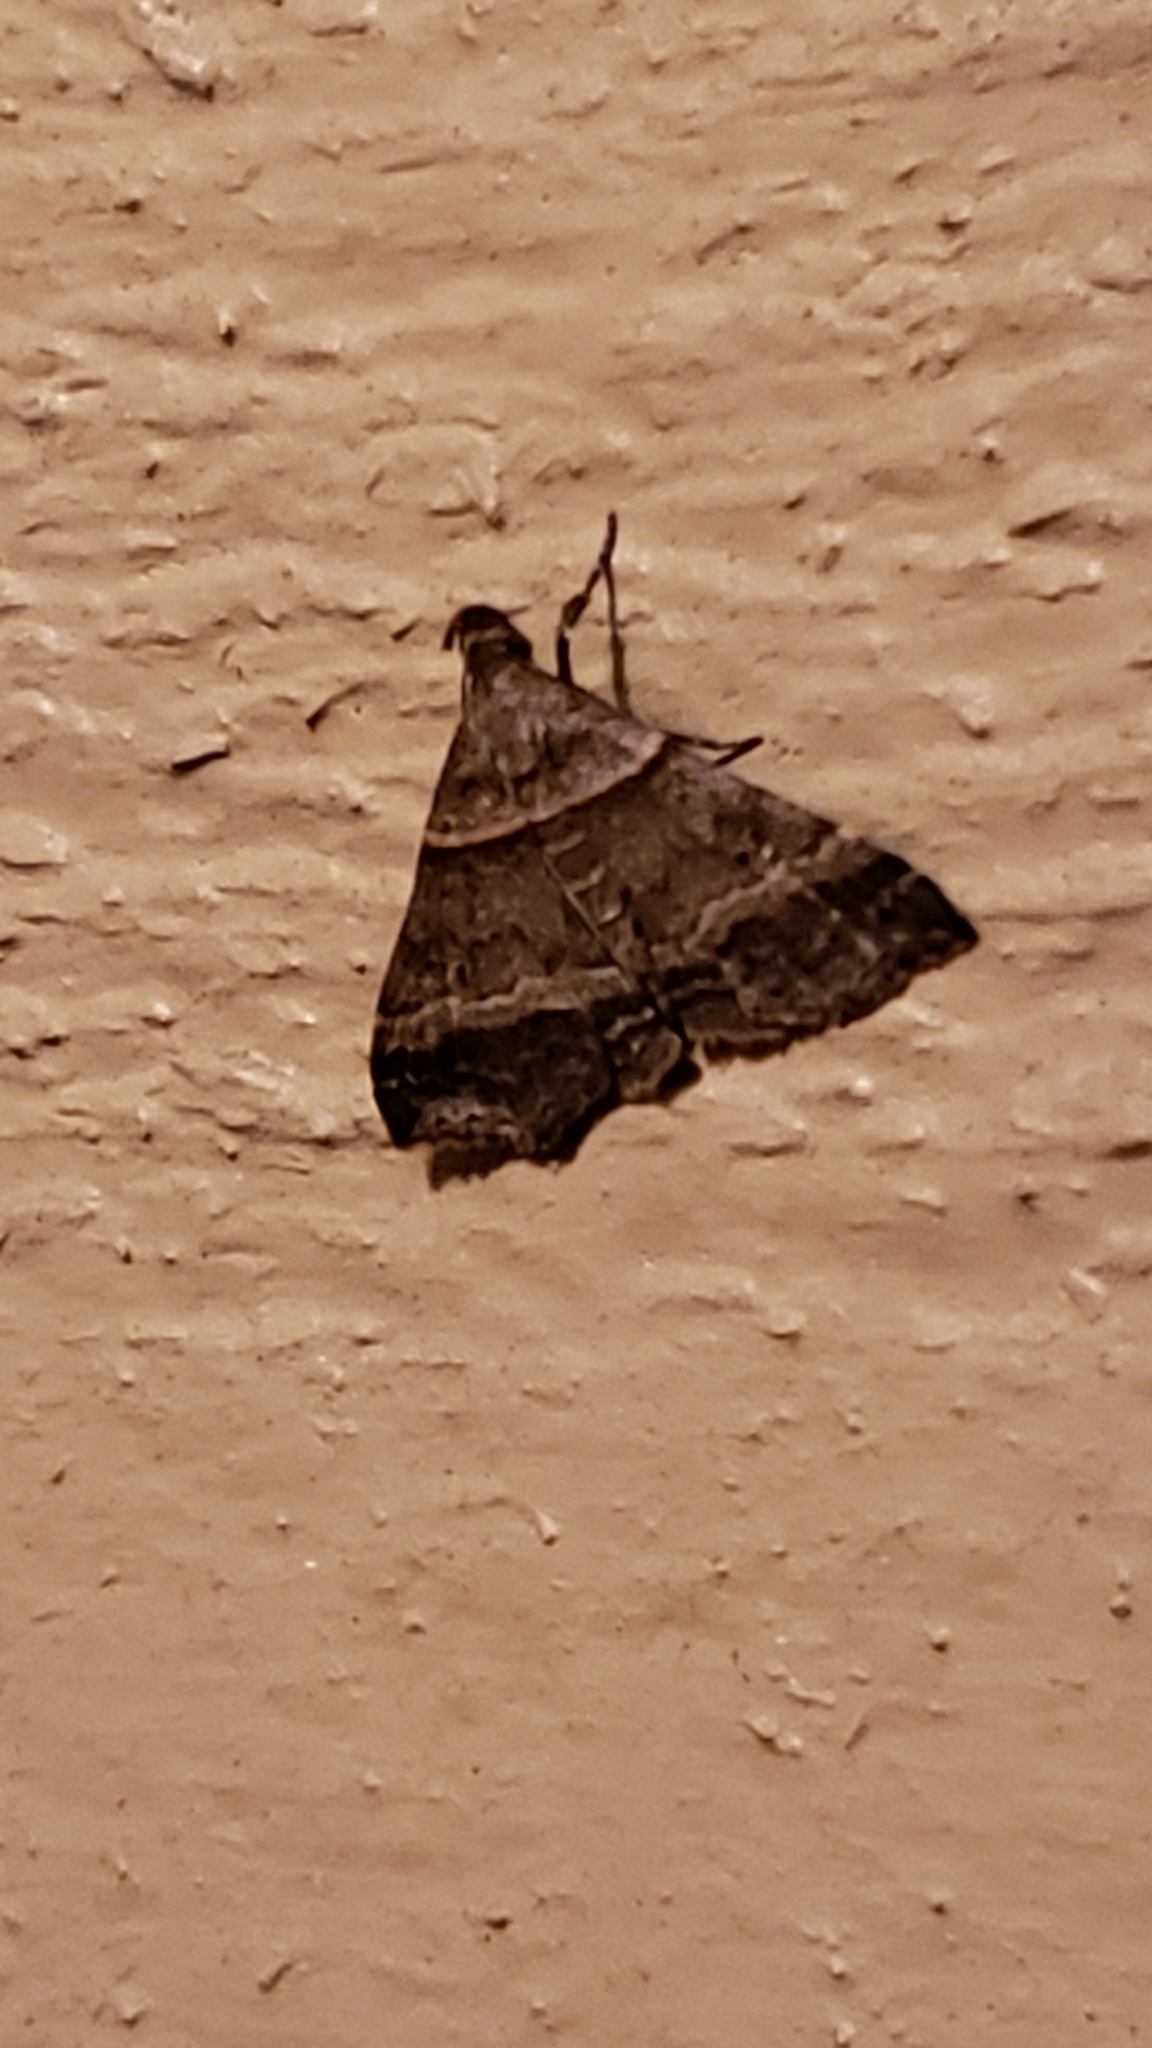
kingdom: Animalia
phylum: Arthropoda
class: Insecta
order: Lepidoptera
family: Erebidae
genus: Phaeolita
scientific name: Phaeolita pyramusalis
